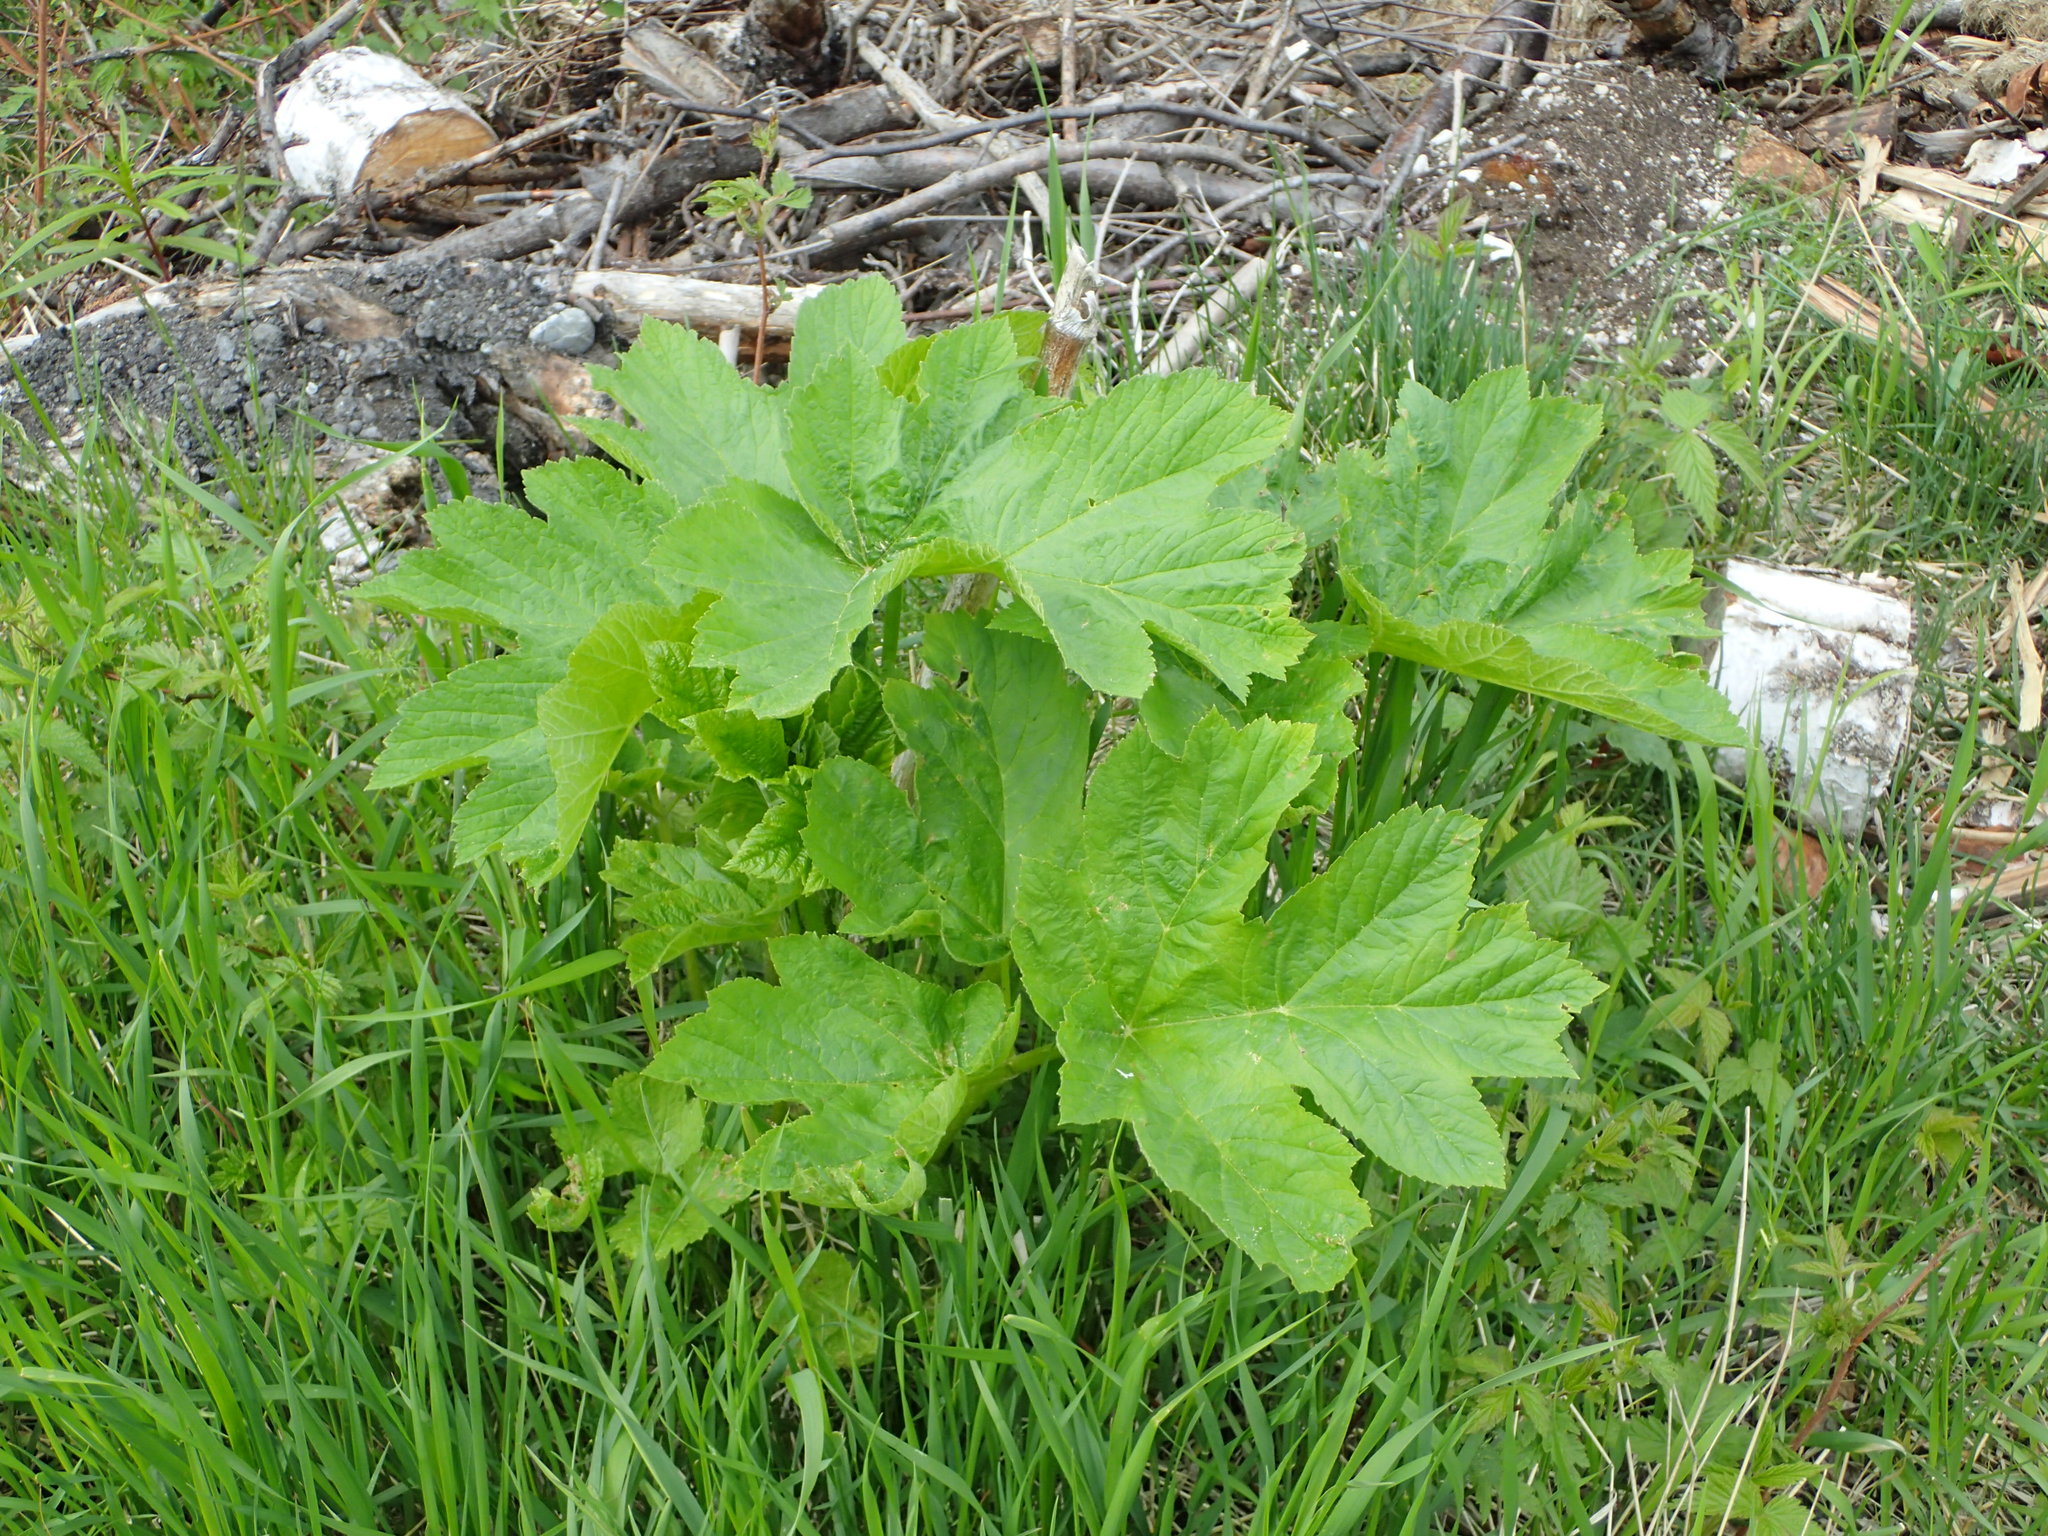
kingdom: Plantae
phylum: Tracheophyta
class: Magnoliopsida
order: Apiales
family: Apiaceae
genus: Heracleum
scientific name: Heracleum maximum
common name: American cow parsnip
